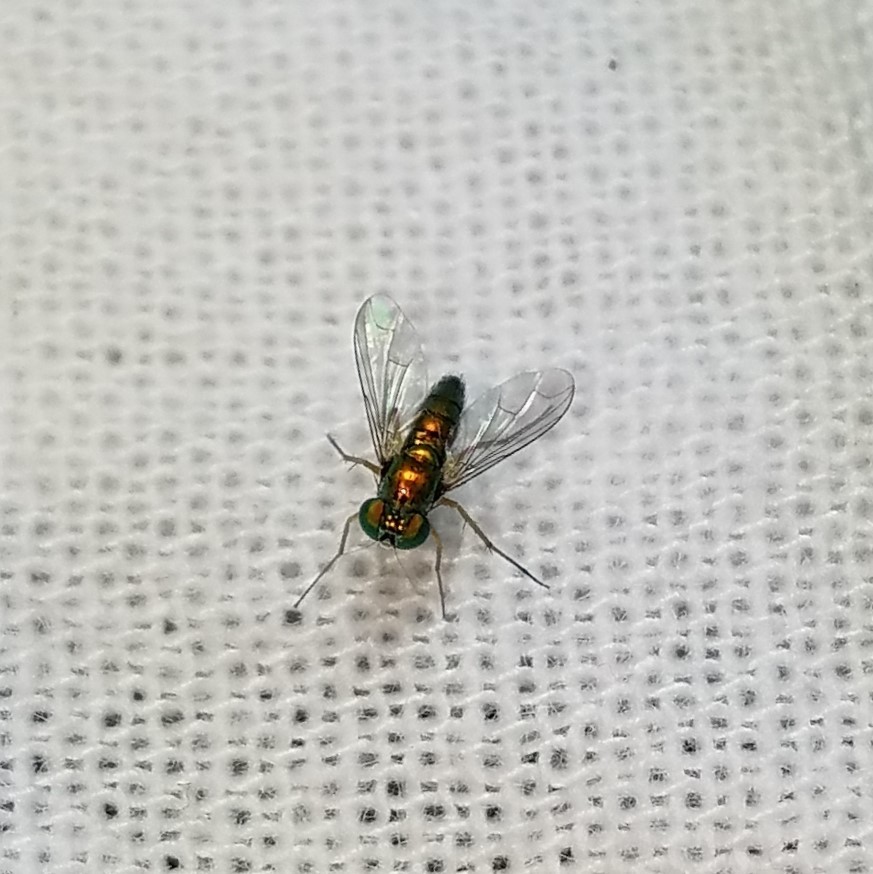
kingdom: Animalia
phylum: Arthropoda
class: Insecta
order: Diptera
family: Dolichopodidae
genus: Condylostylus
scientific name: Condylostylus
